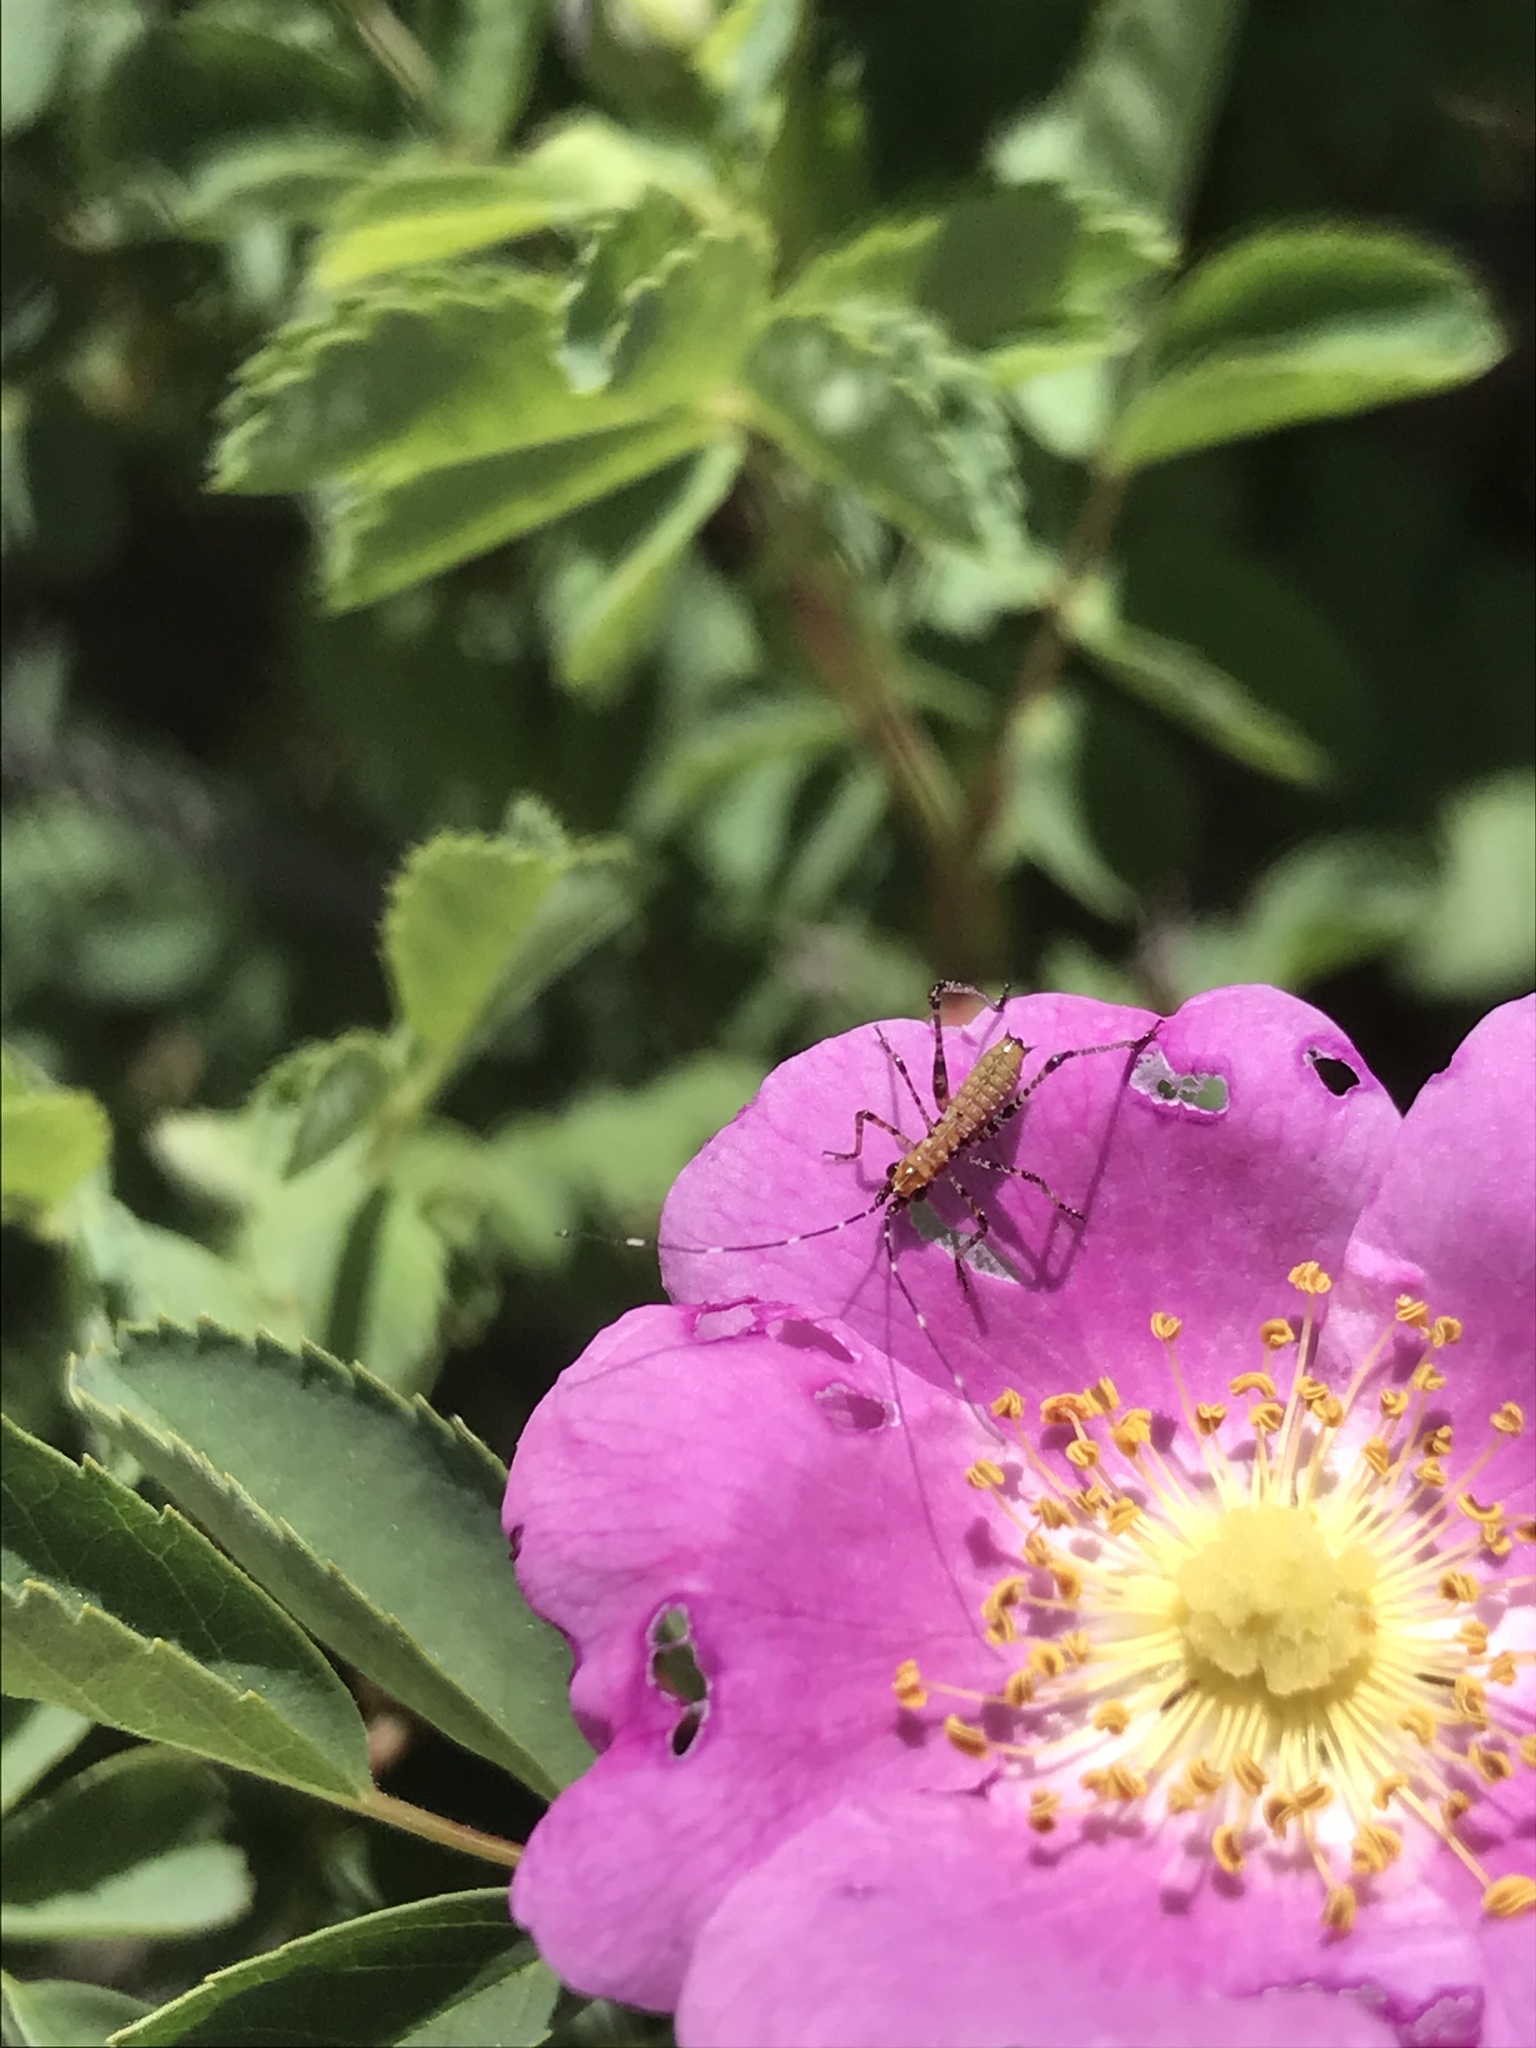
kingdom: Animalia
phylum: Arthropoda
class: Insecta
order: Orthoptera
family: Tettigoniidae
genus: Scudderia
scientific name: Scudderia furcata
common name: Fork-tailed bush katydid
